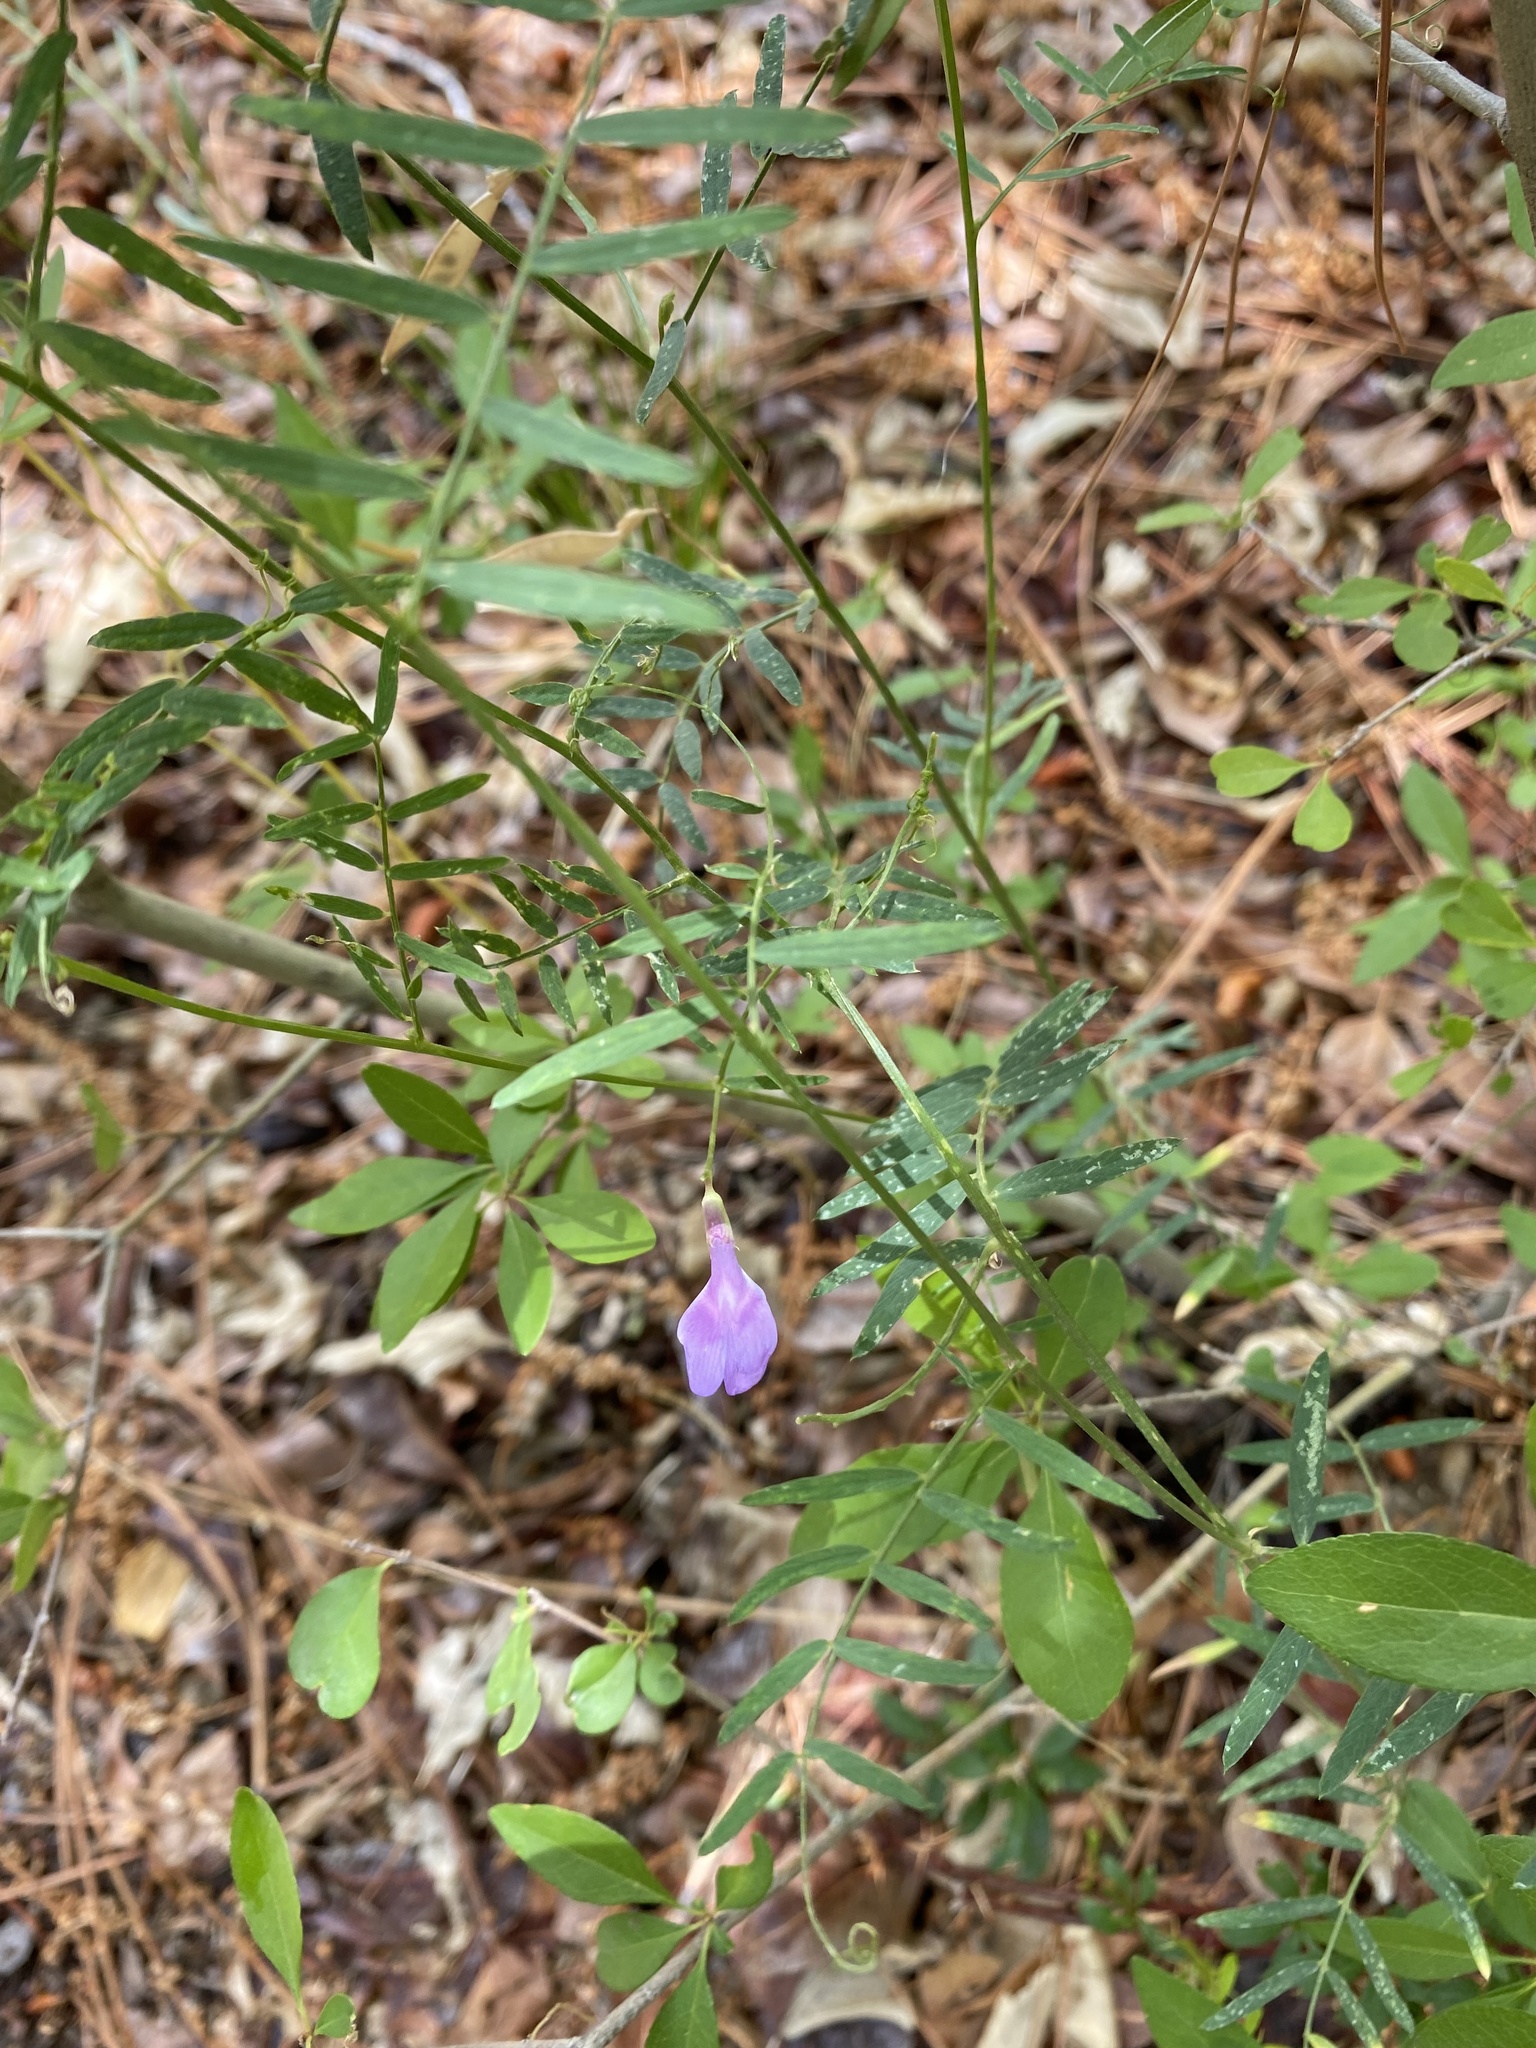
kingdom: Plantae
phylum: Tracheophyta
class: Magnoliopsida
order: Fabales
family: Fabaceae
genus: Vicia
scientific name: Vicia americana
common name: American vetch
